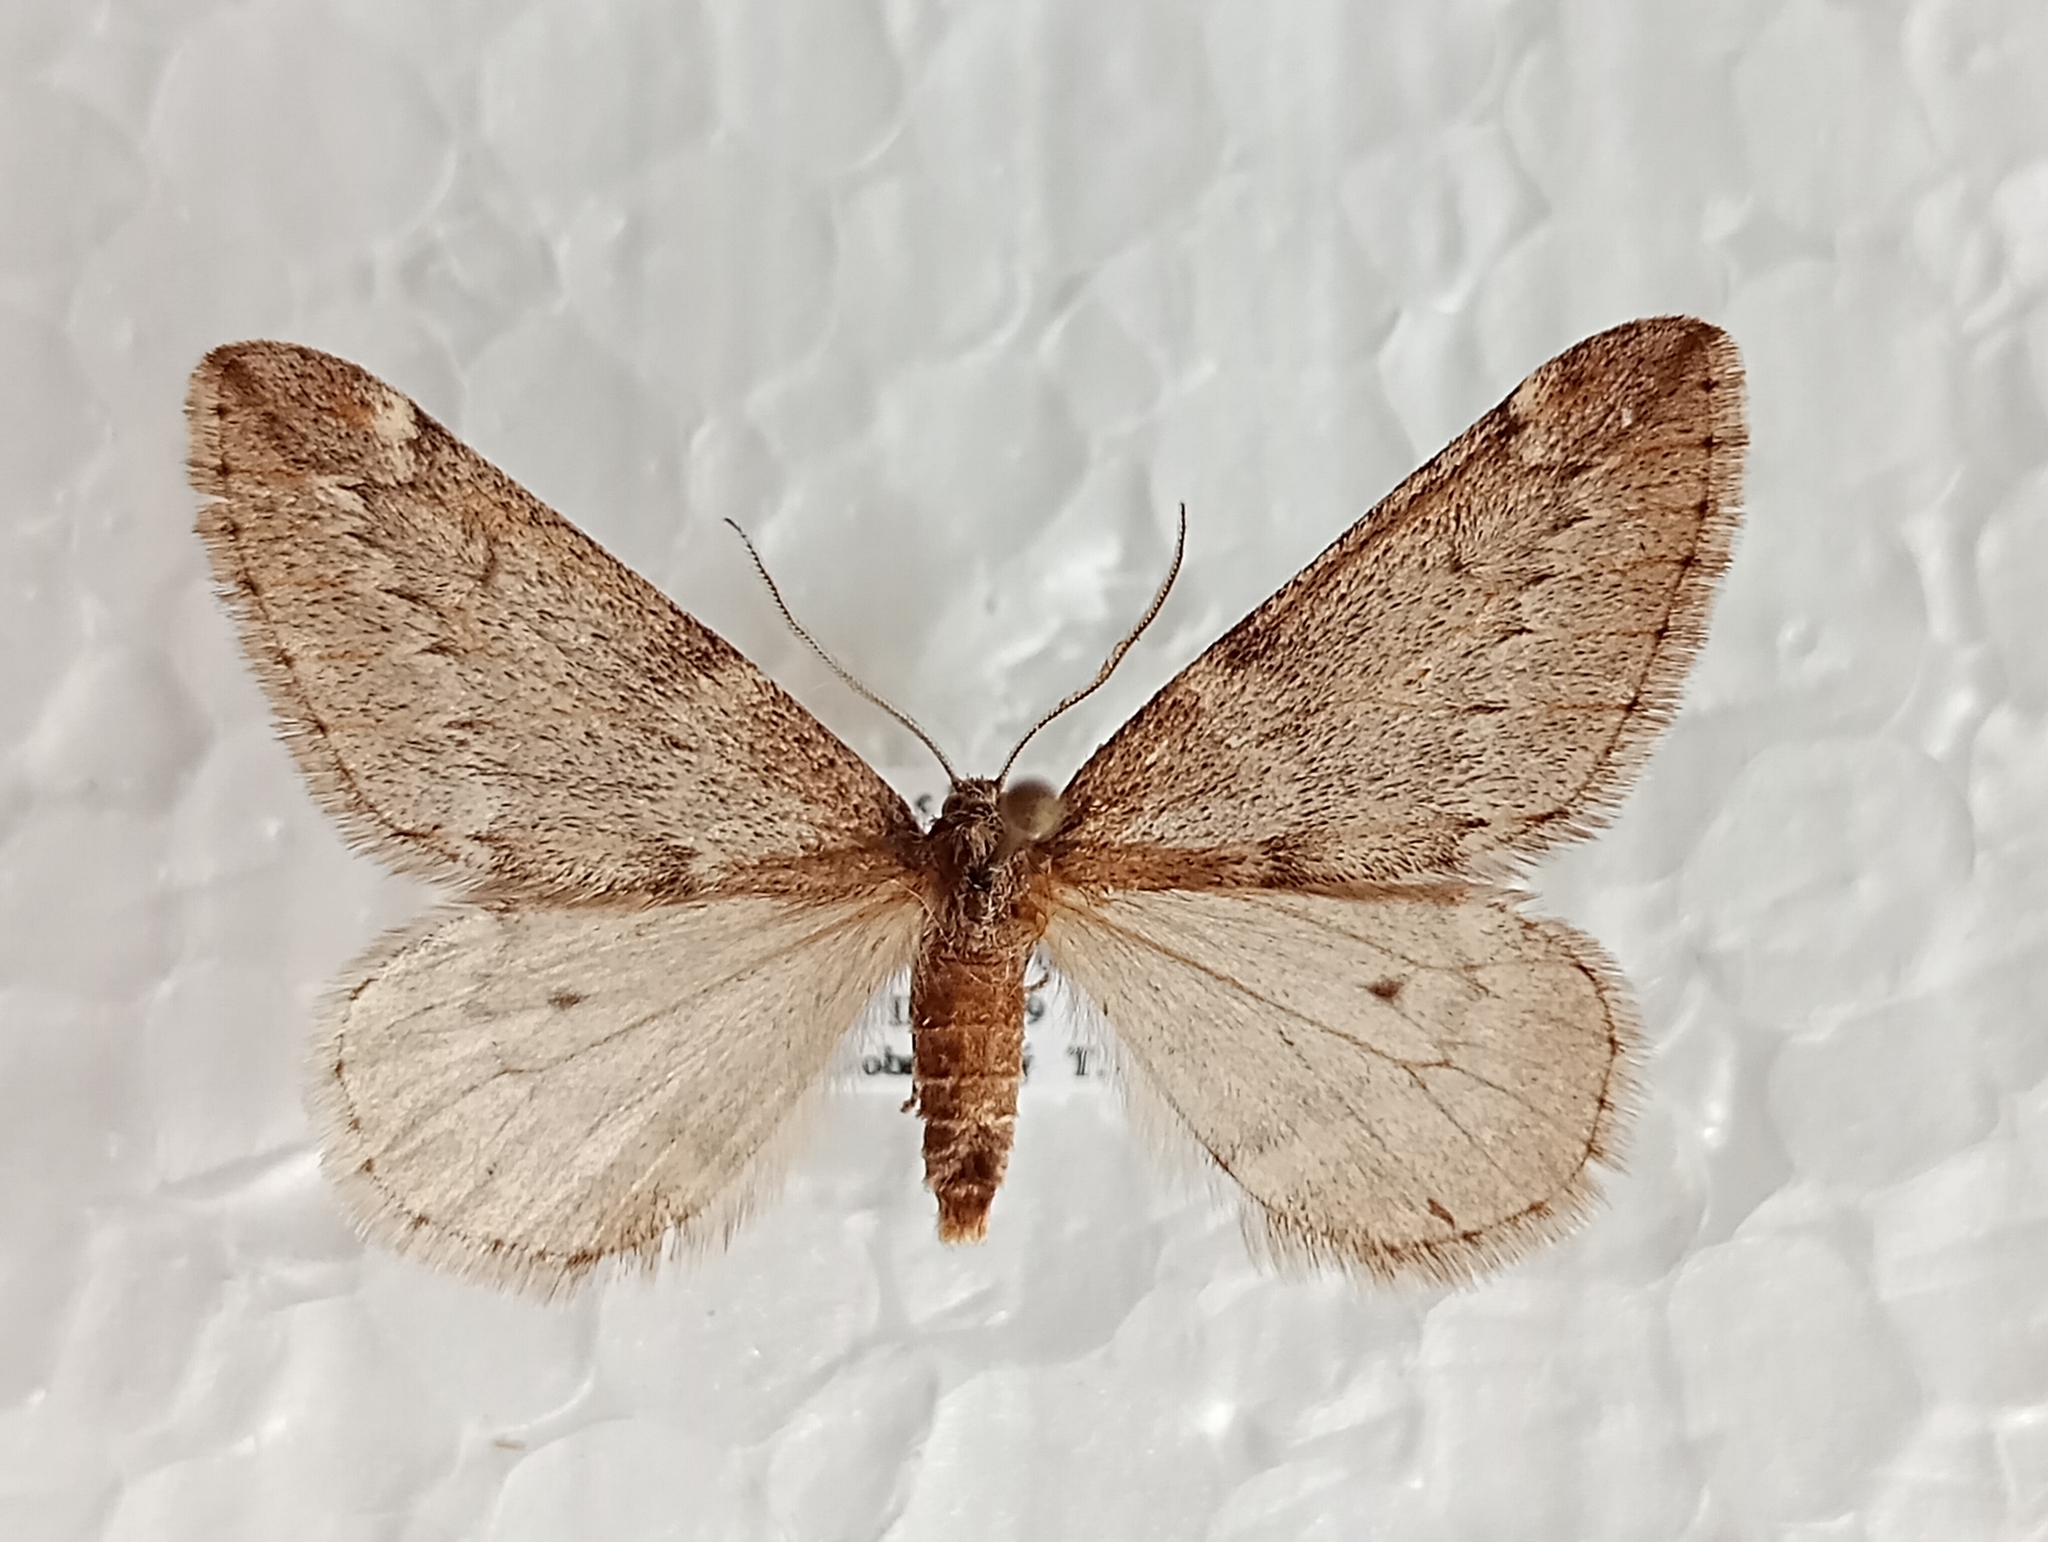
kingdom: Animalia
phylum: Arthropoda
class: Insecta
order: Lepidoptera
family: Geometridae
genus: Alsophila
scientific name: Alsophila aescularia
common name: March moth
